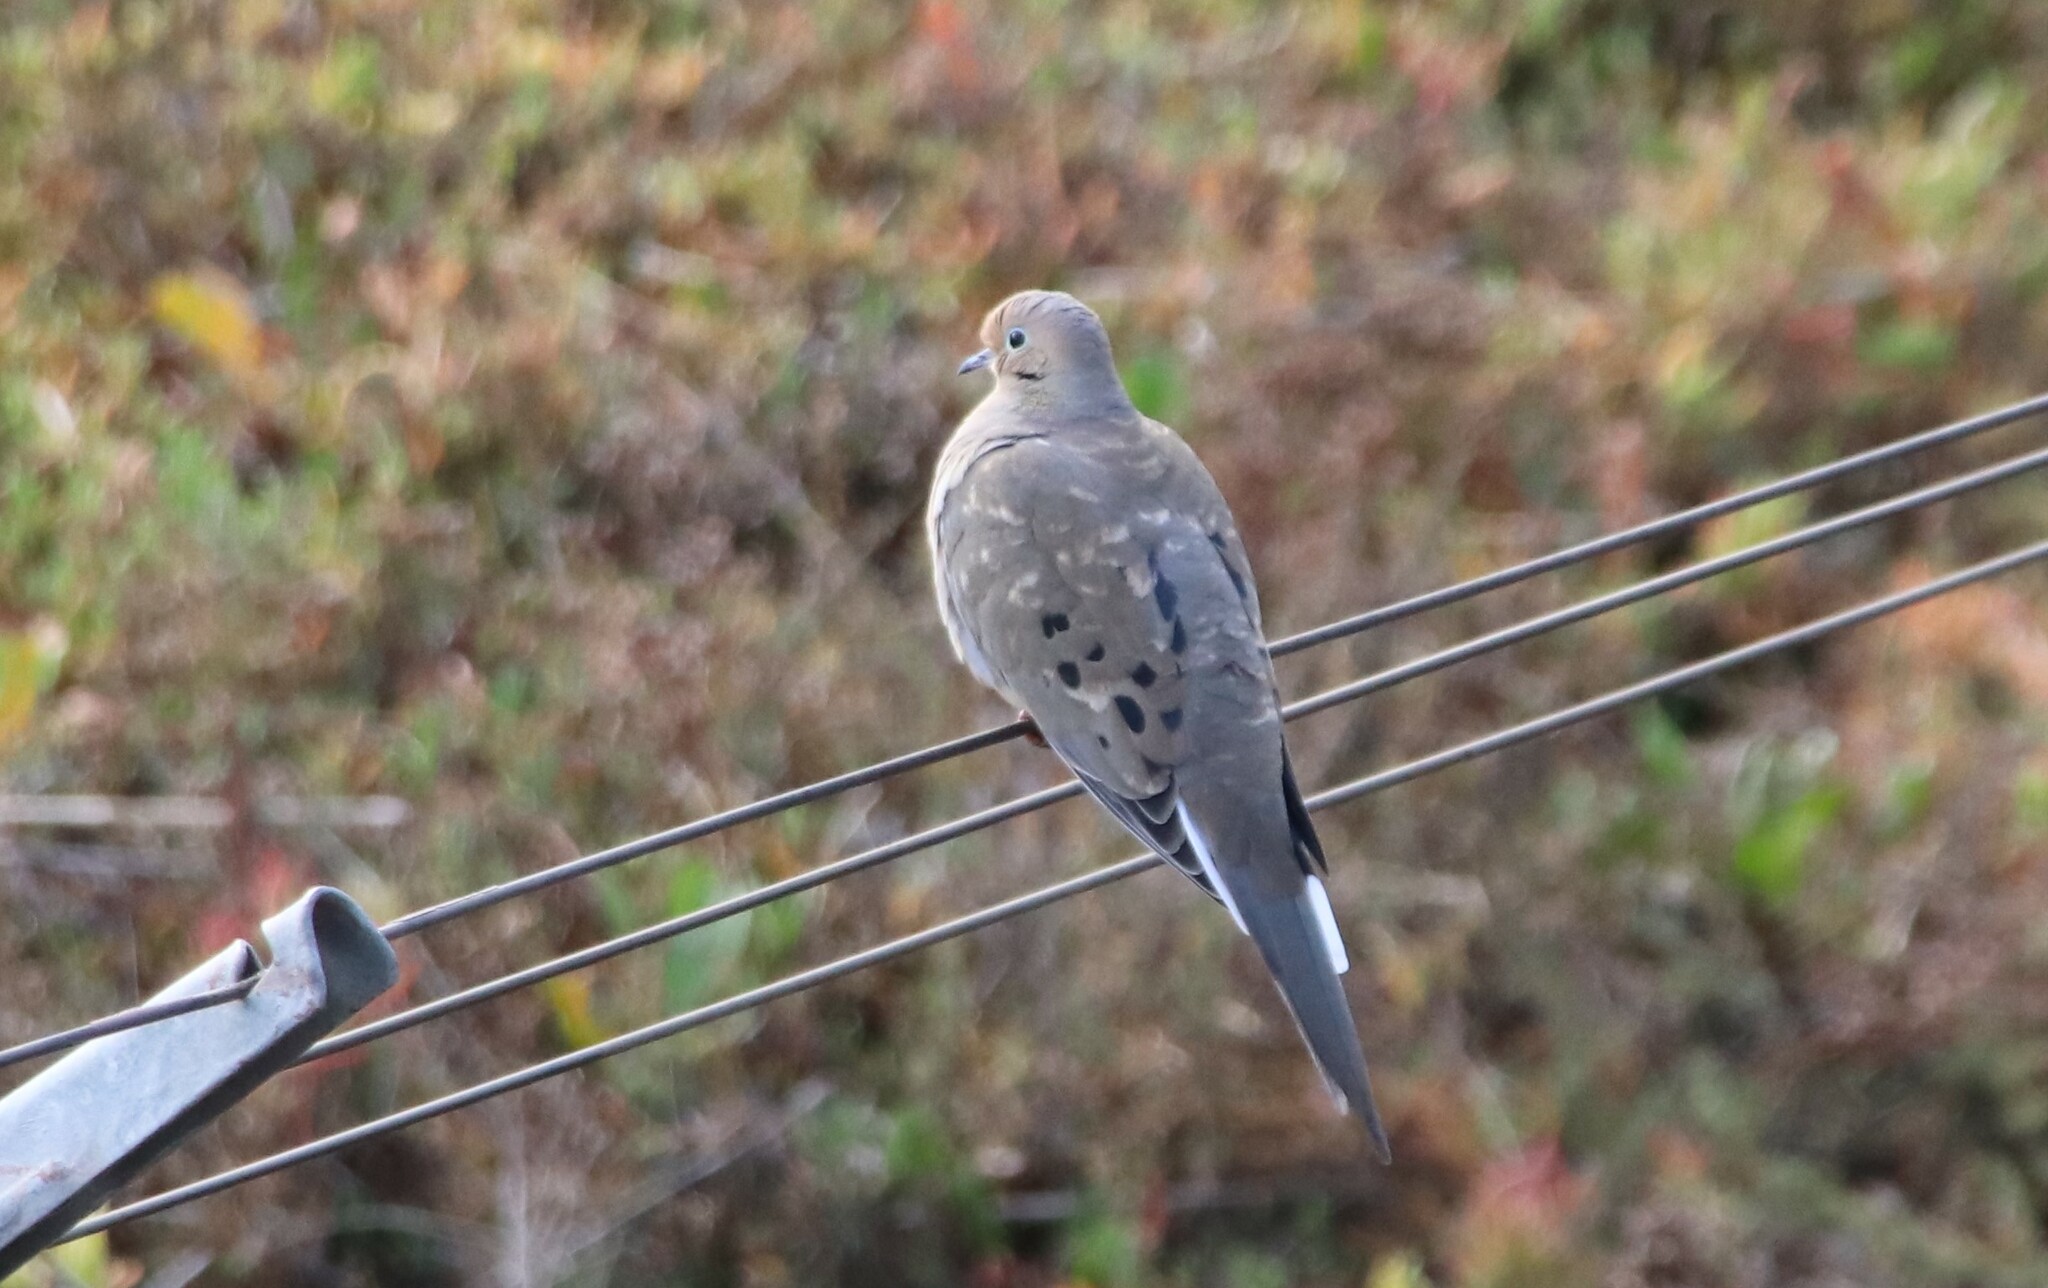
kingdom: Animalia
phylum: Chordata
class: Aves
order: Columbiformes
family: Columbidae
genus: Zenaida
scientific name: Zenaida macroura
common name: Mourning dove
